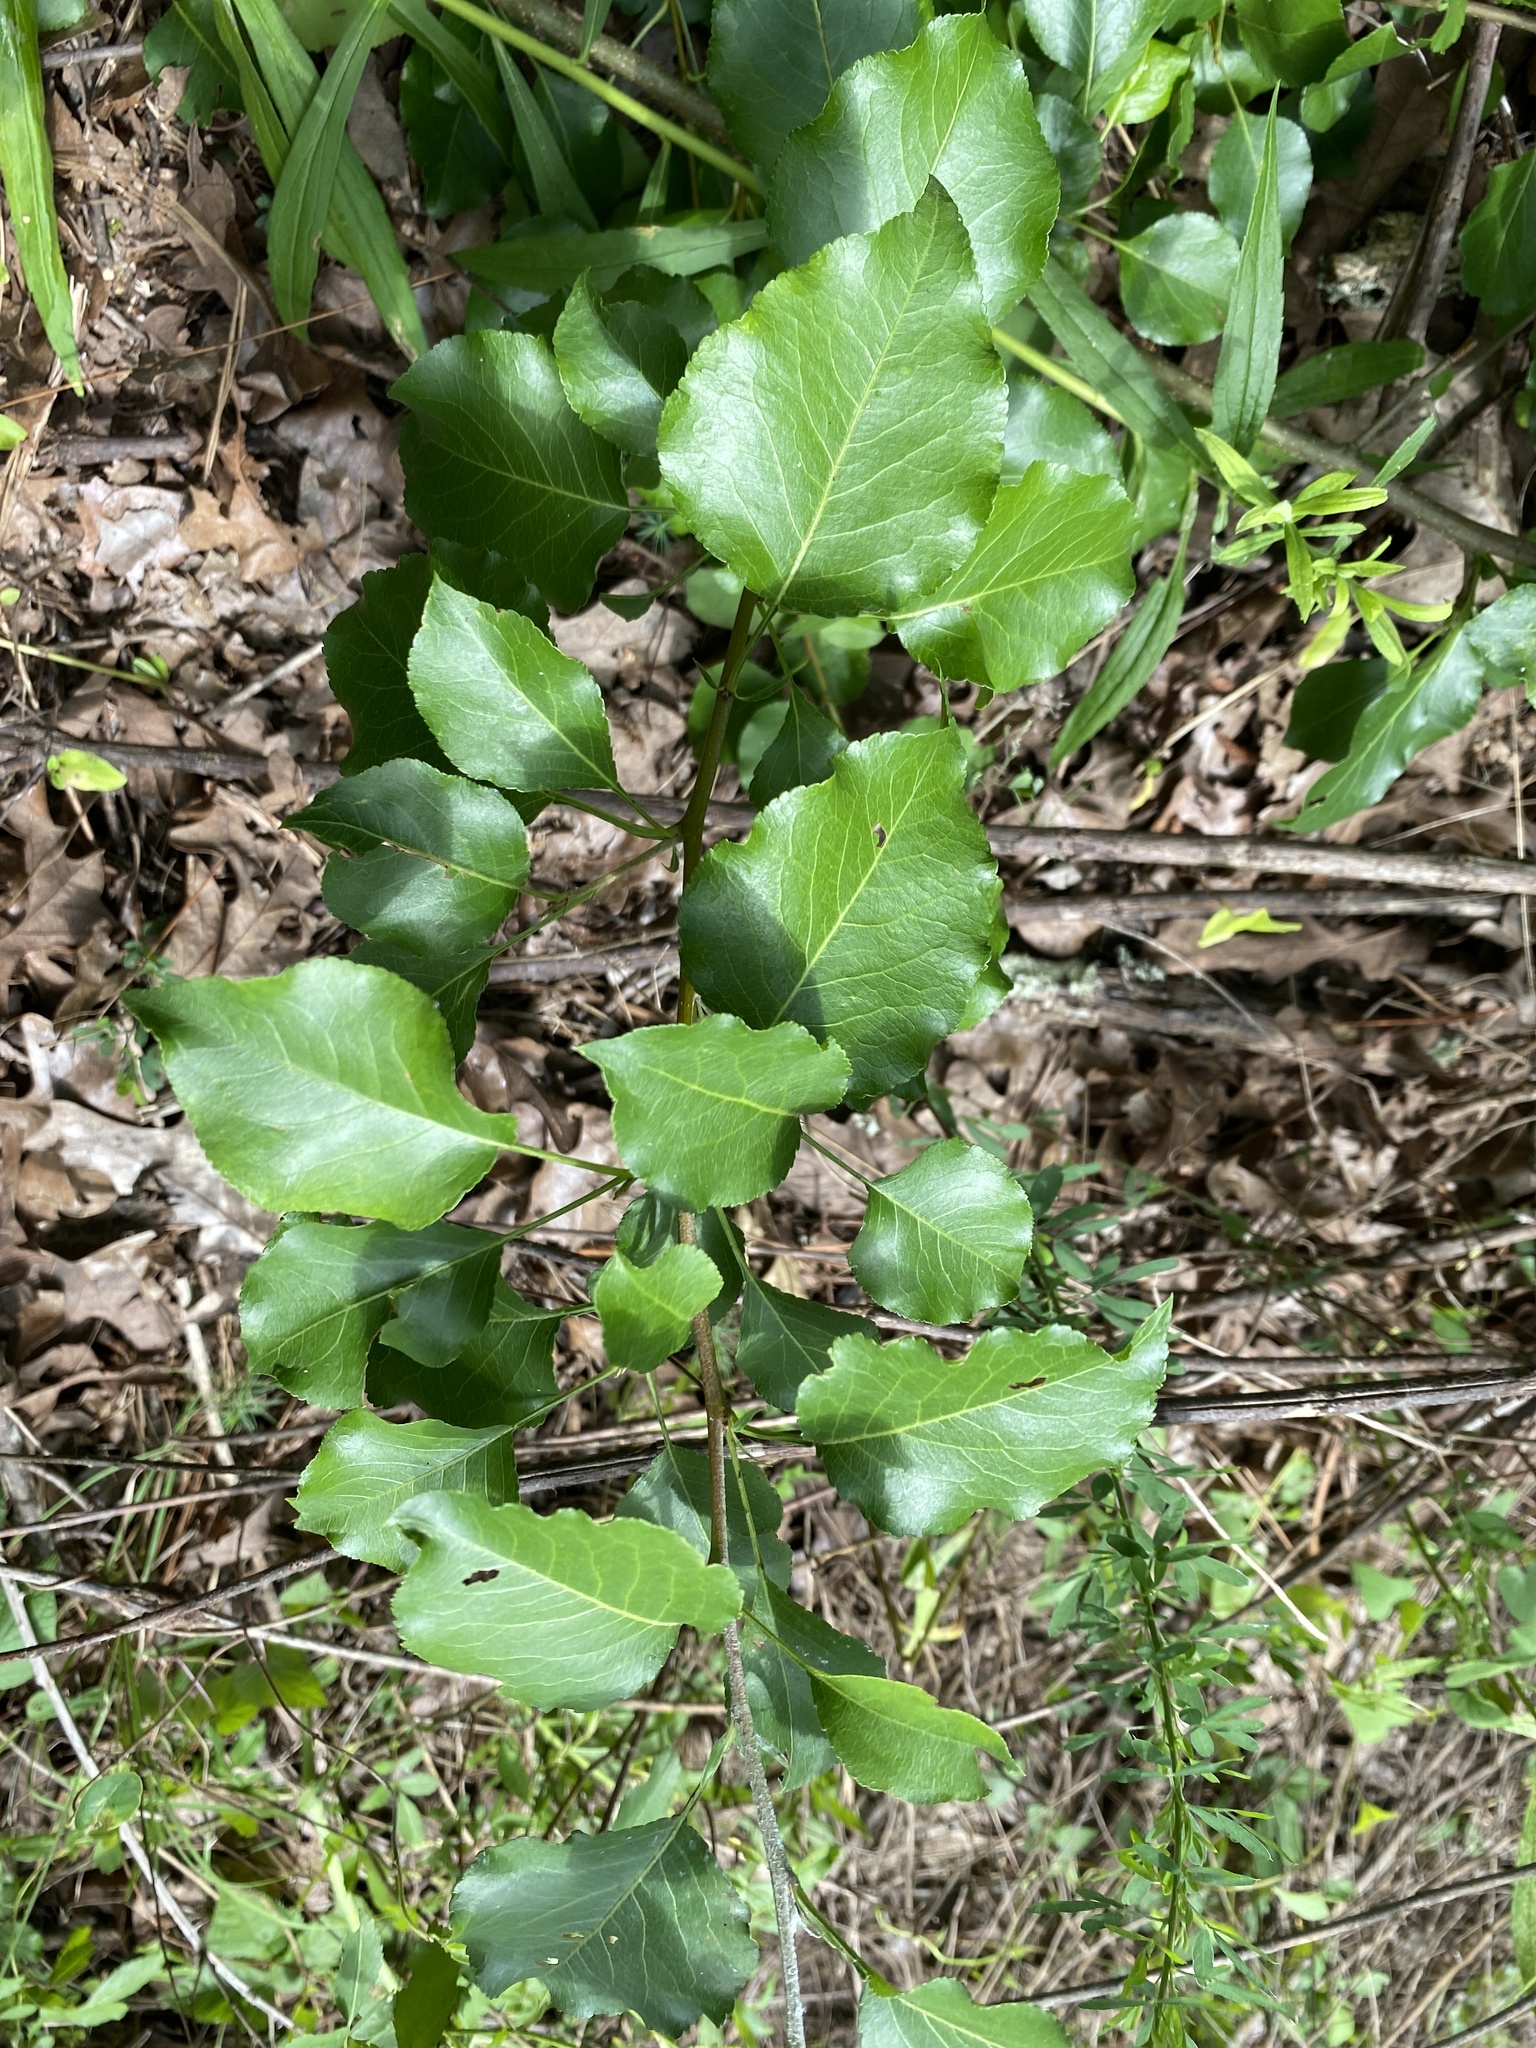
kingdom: Plantae
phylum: Tracheophyta
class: Magnoliopsida
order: Rosales
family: Rosaceae
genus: Pyrus
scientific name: Pyrus calleryana
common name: Callery pear
